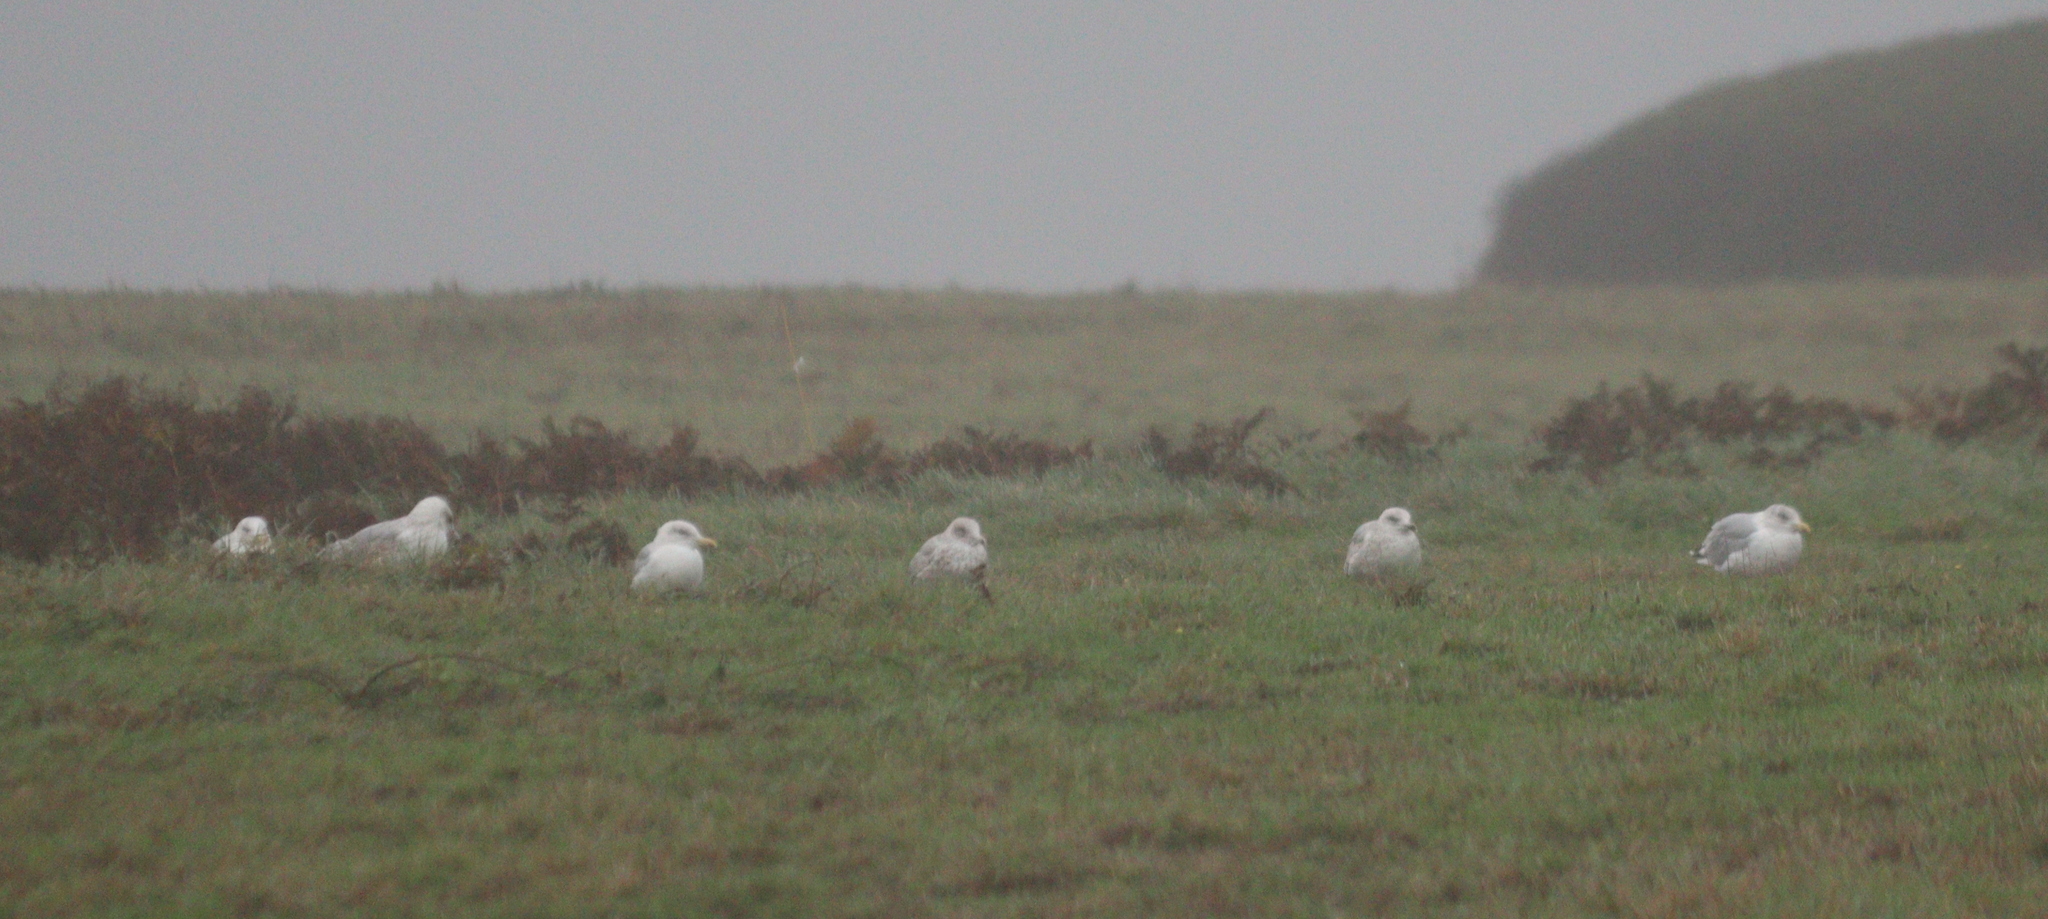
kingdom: Animalia
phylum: Chordata
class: Aves
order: Charadriiformes
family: Laridae
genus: Larus
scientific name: Larus argentatus
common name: Herring gull
